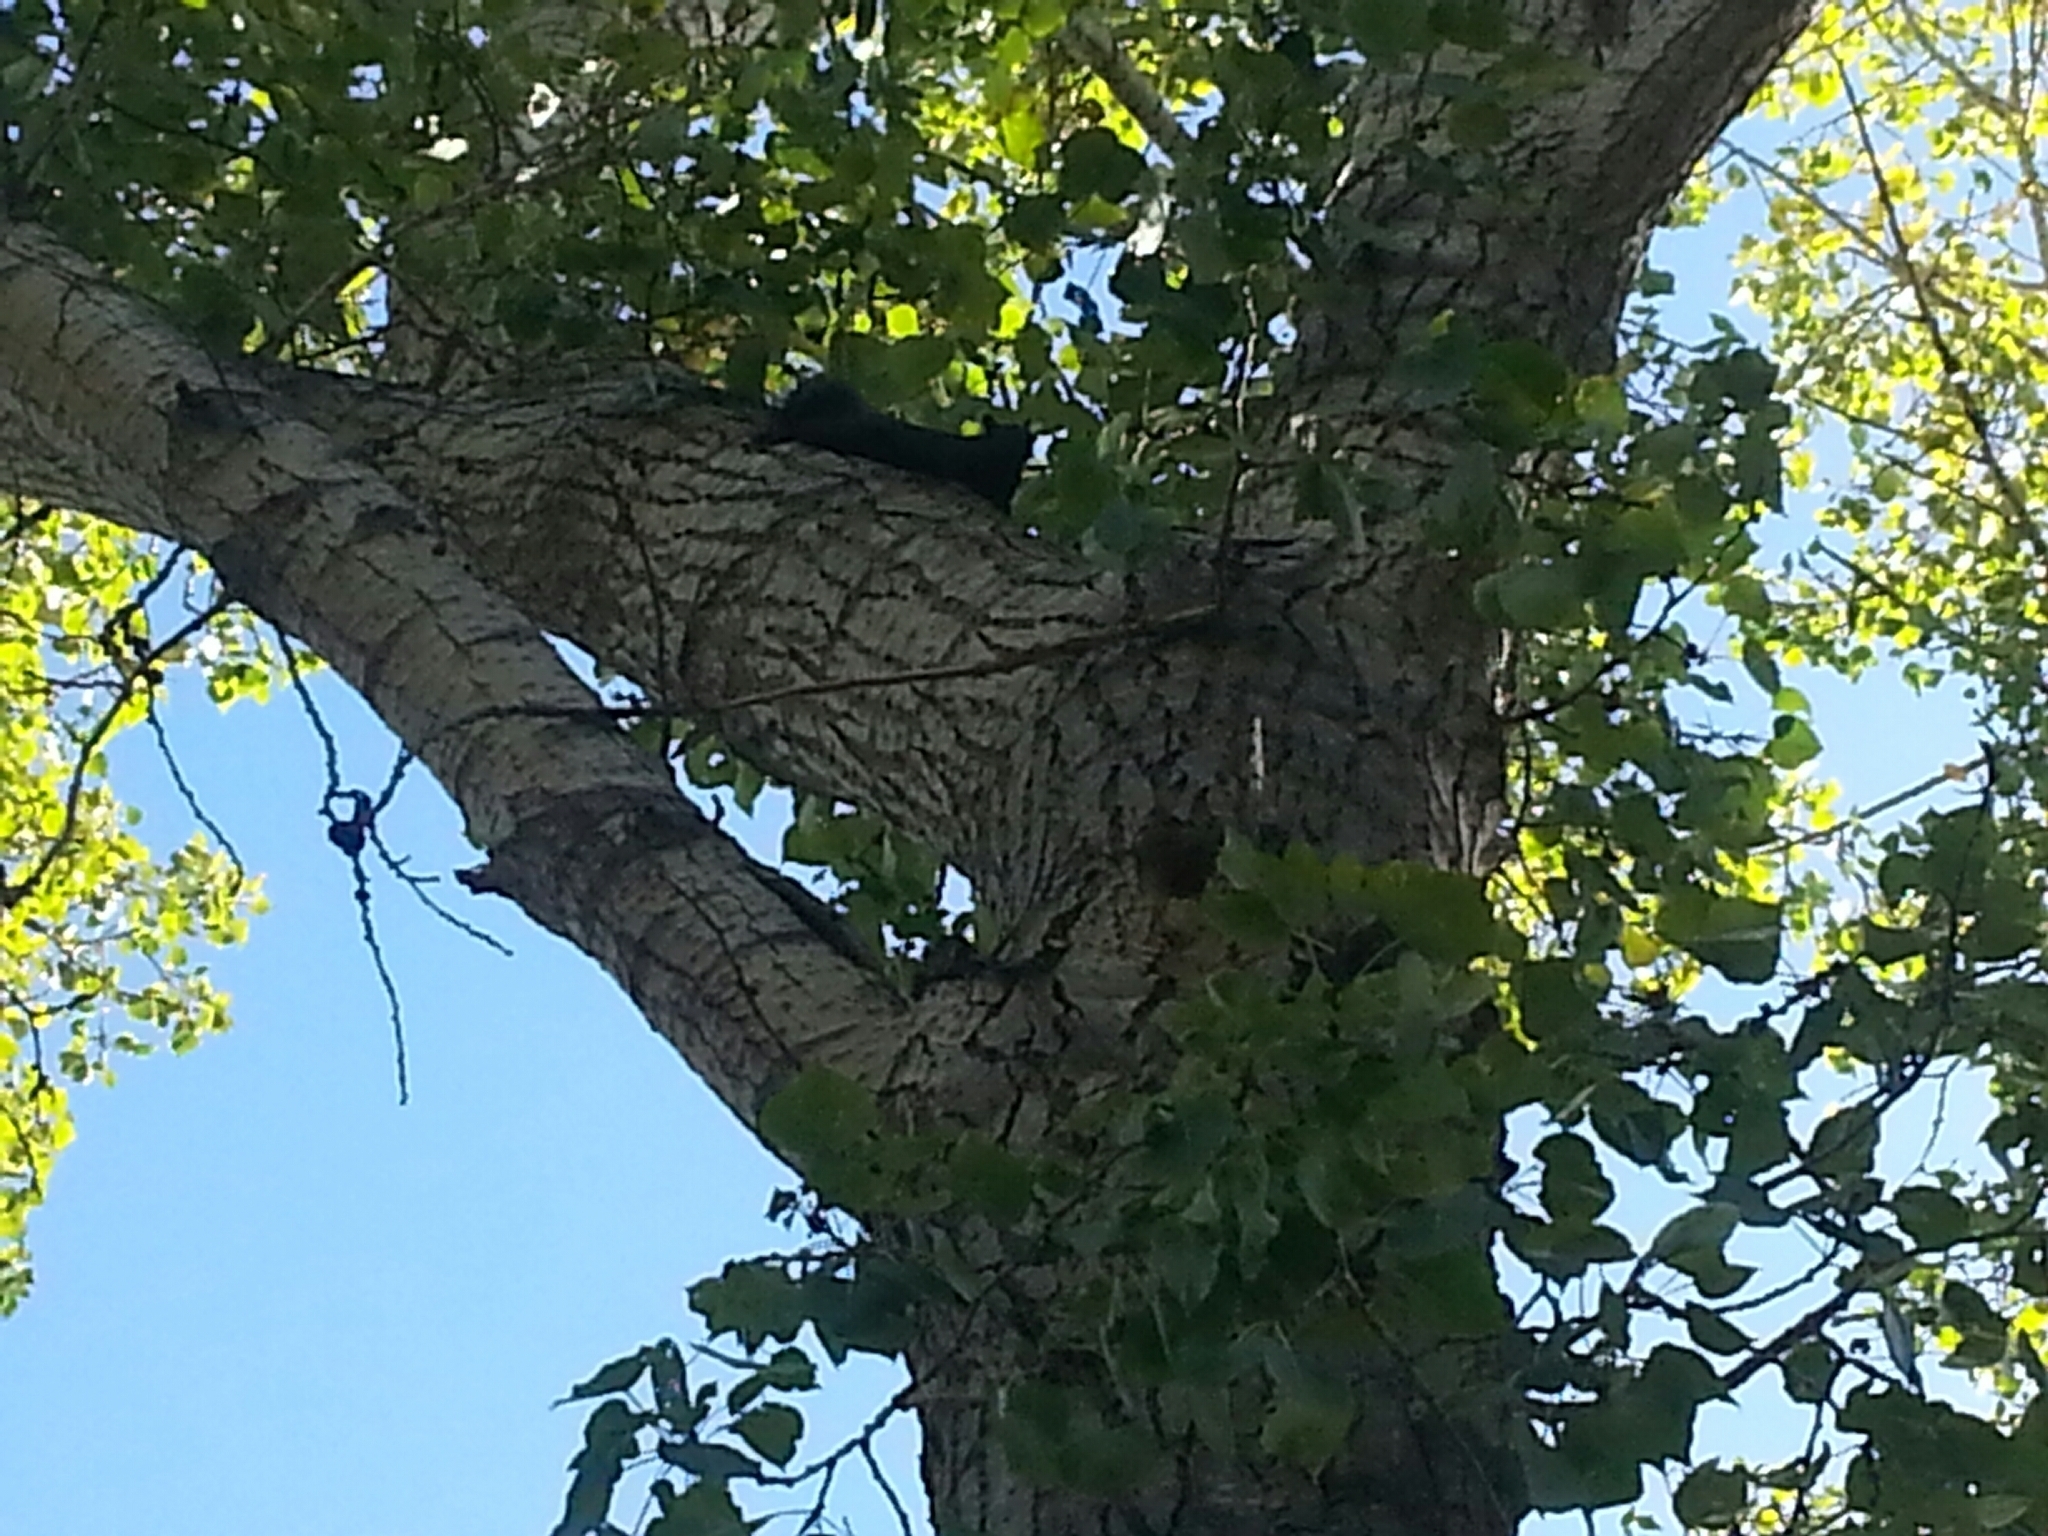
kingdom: Animalia
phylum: Chordata
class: Mammalia
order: Rodentia
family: Sciuridae
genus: Sciurus
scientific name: Sciurus carolinensis
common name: Eastern gray squirrel
